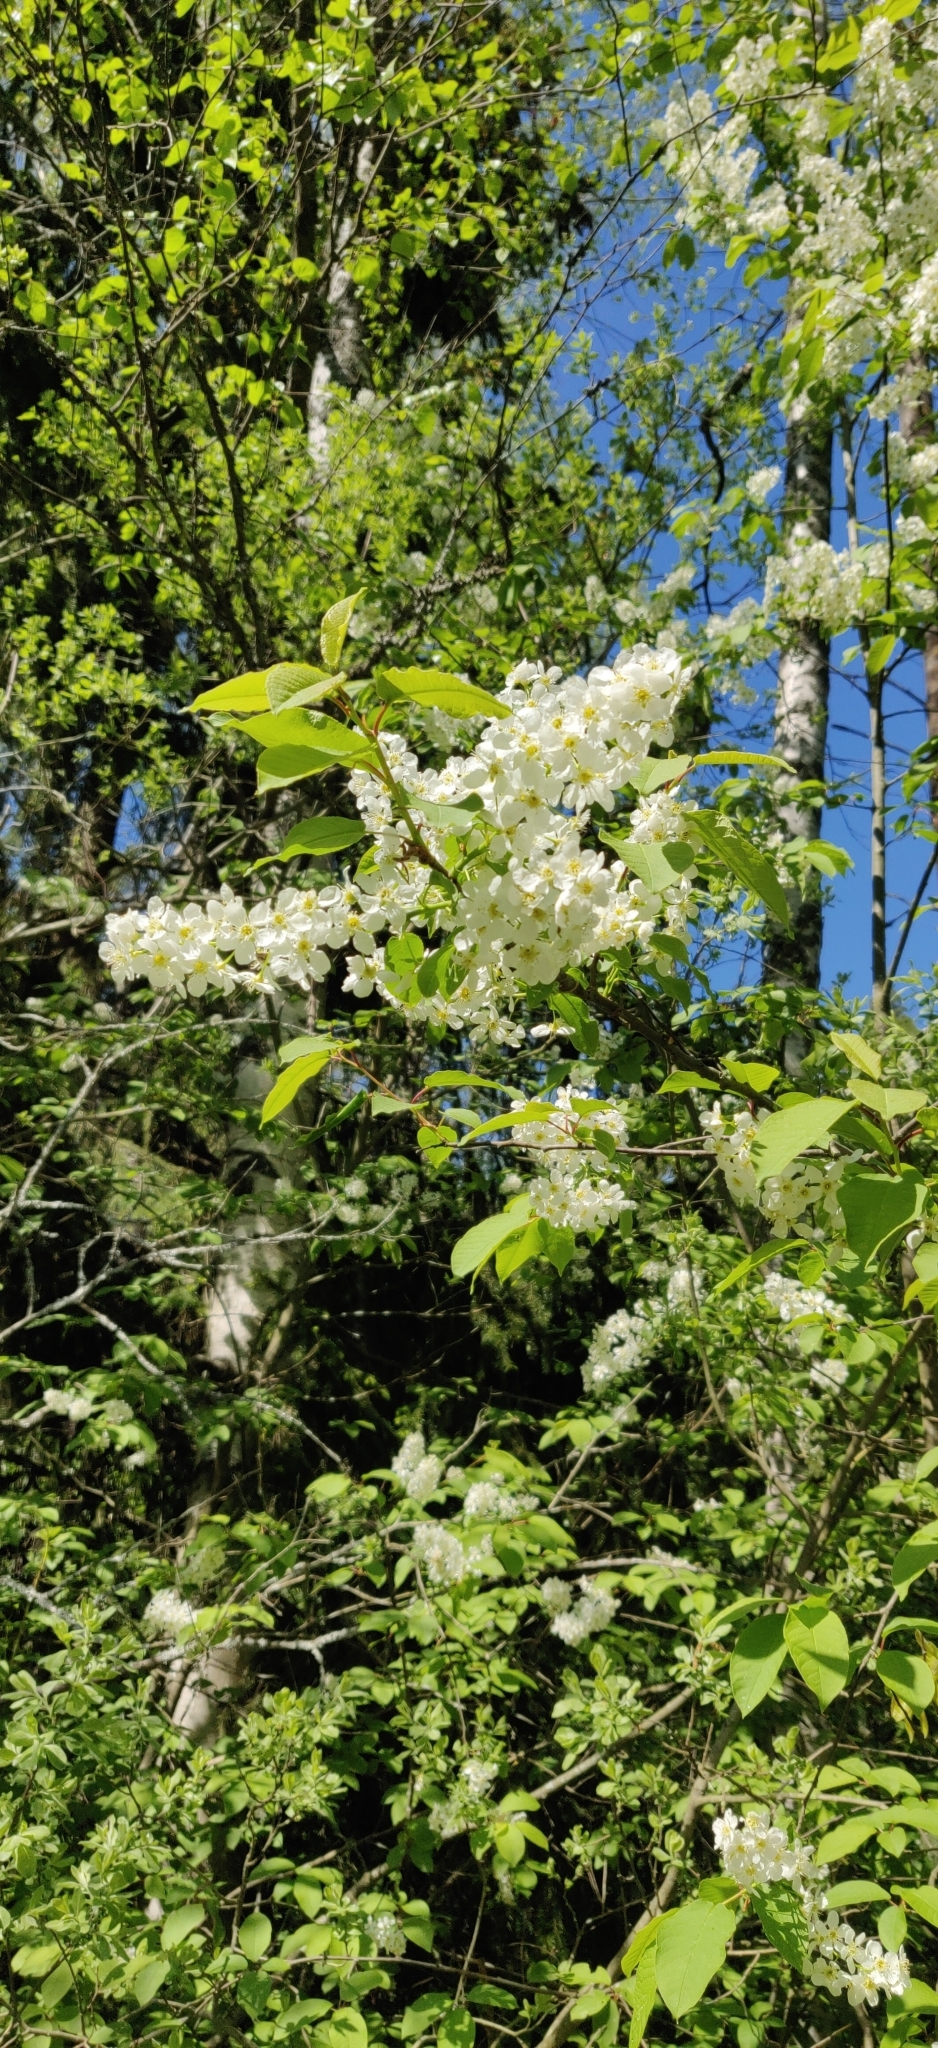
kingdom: Plantae
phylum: Tracheophyta
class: Magnoliopsida
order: Rosales
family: Rosaceae
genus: Prunus
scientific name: Prunus padus
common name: Bird cherry
